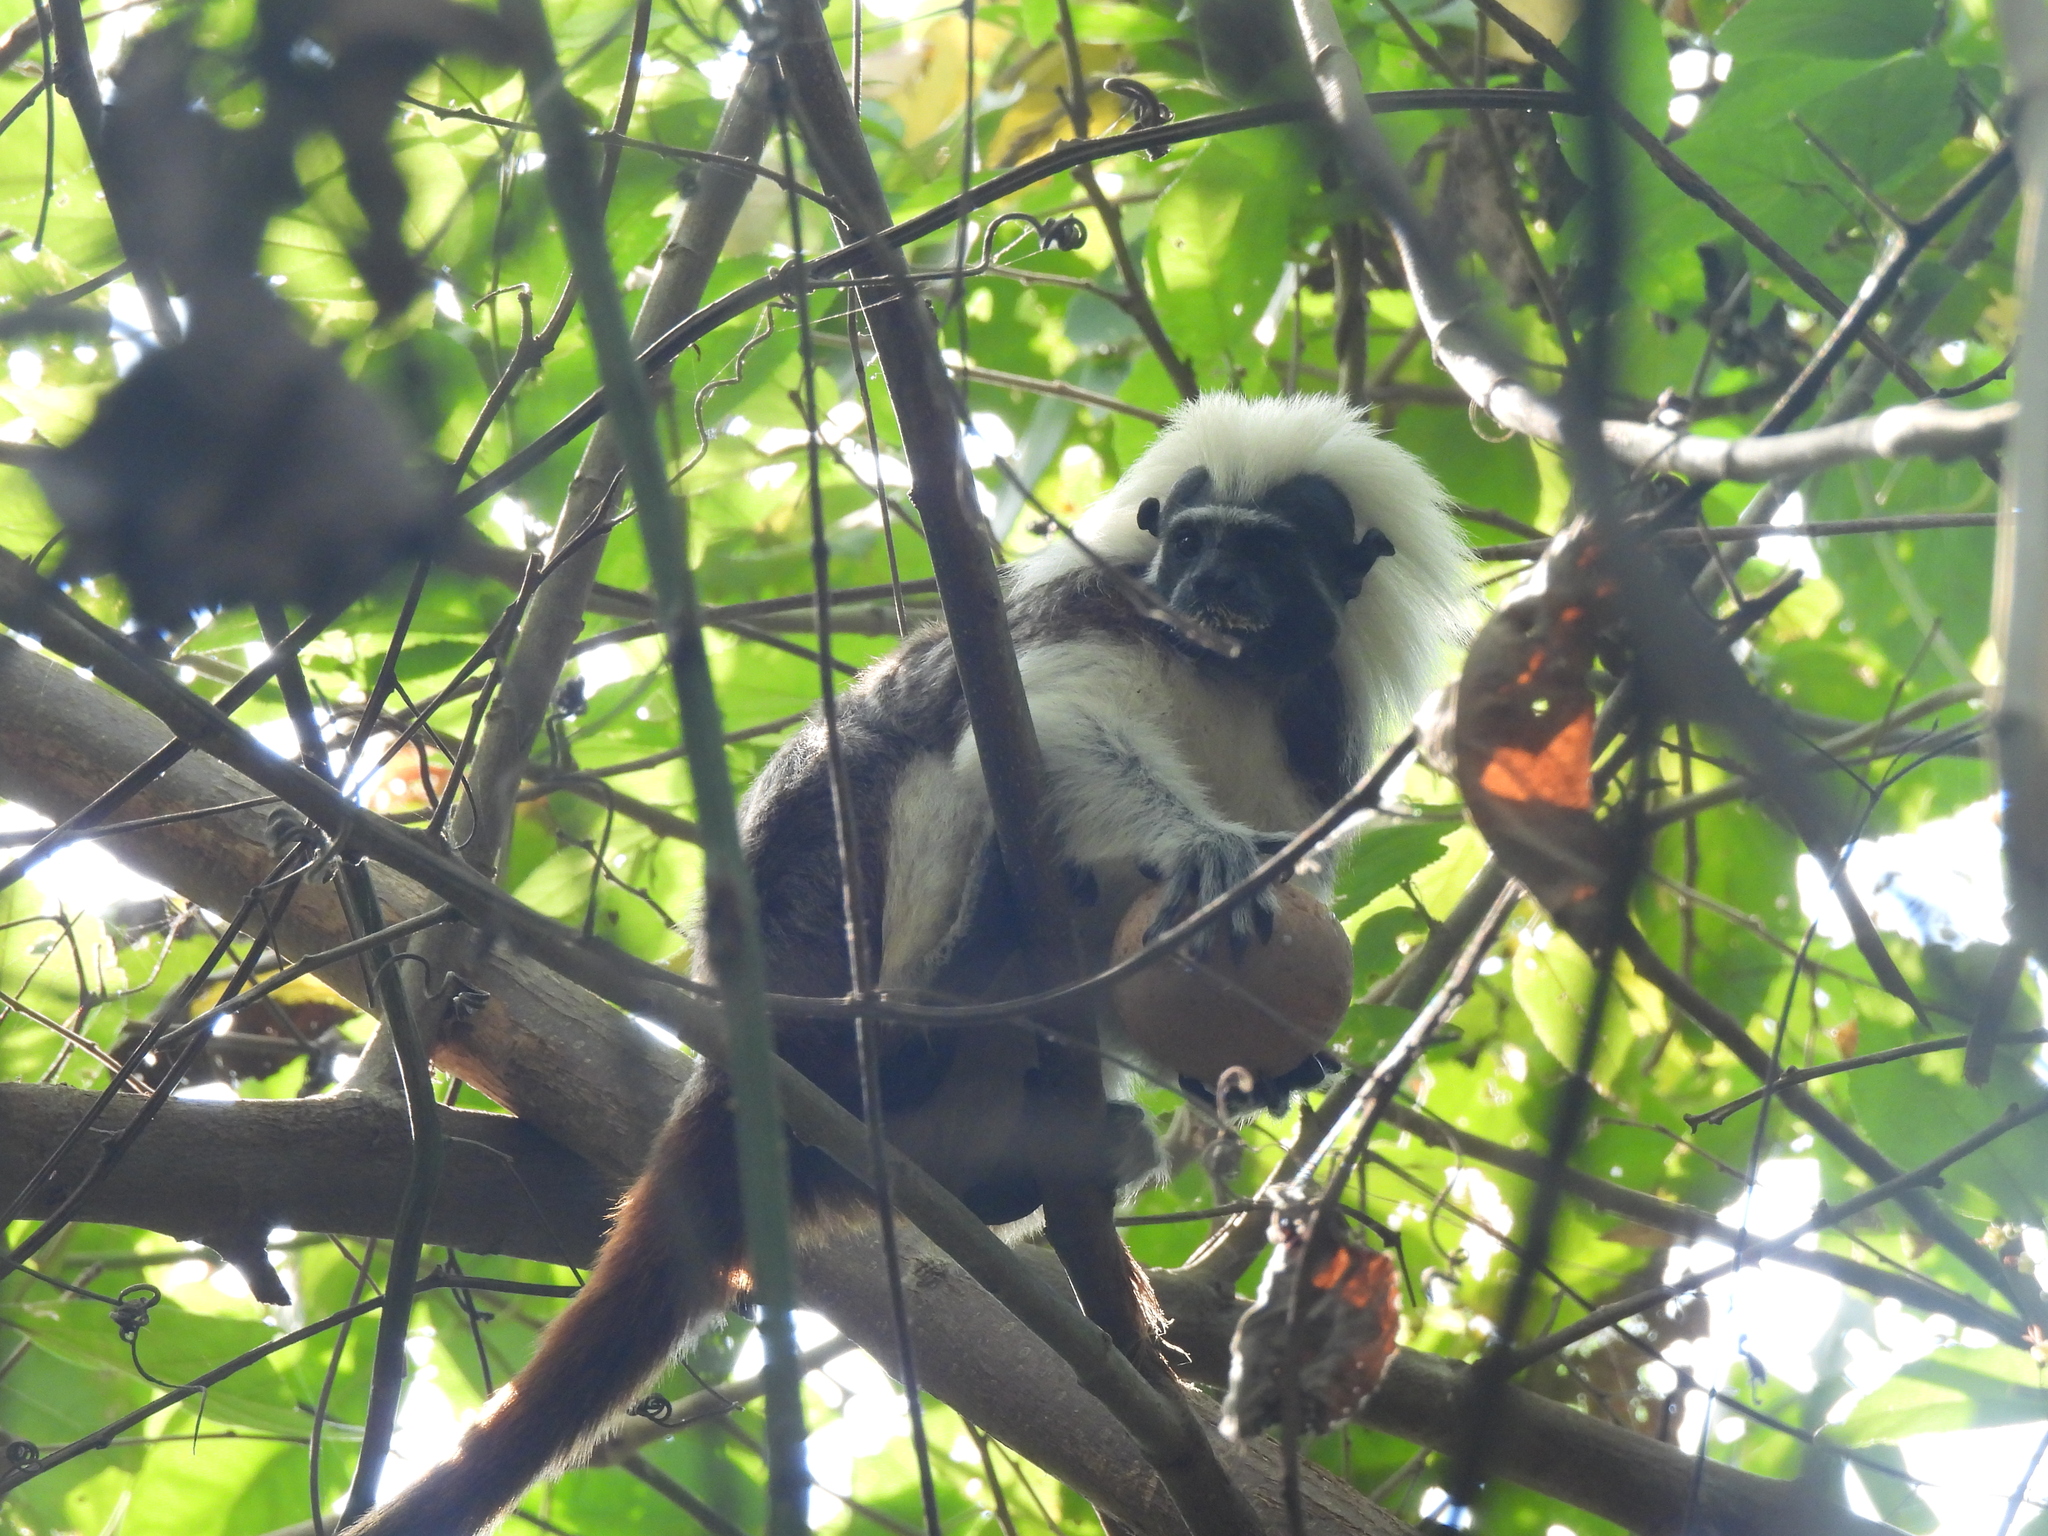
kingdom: Animalia
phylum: Chordata
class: Mammalia
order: Primates
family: Callitrichidae
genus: Saguinus
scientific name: Saguinus oedipus
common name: Cottontop tamarin
